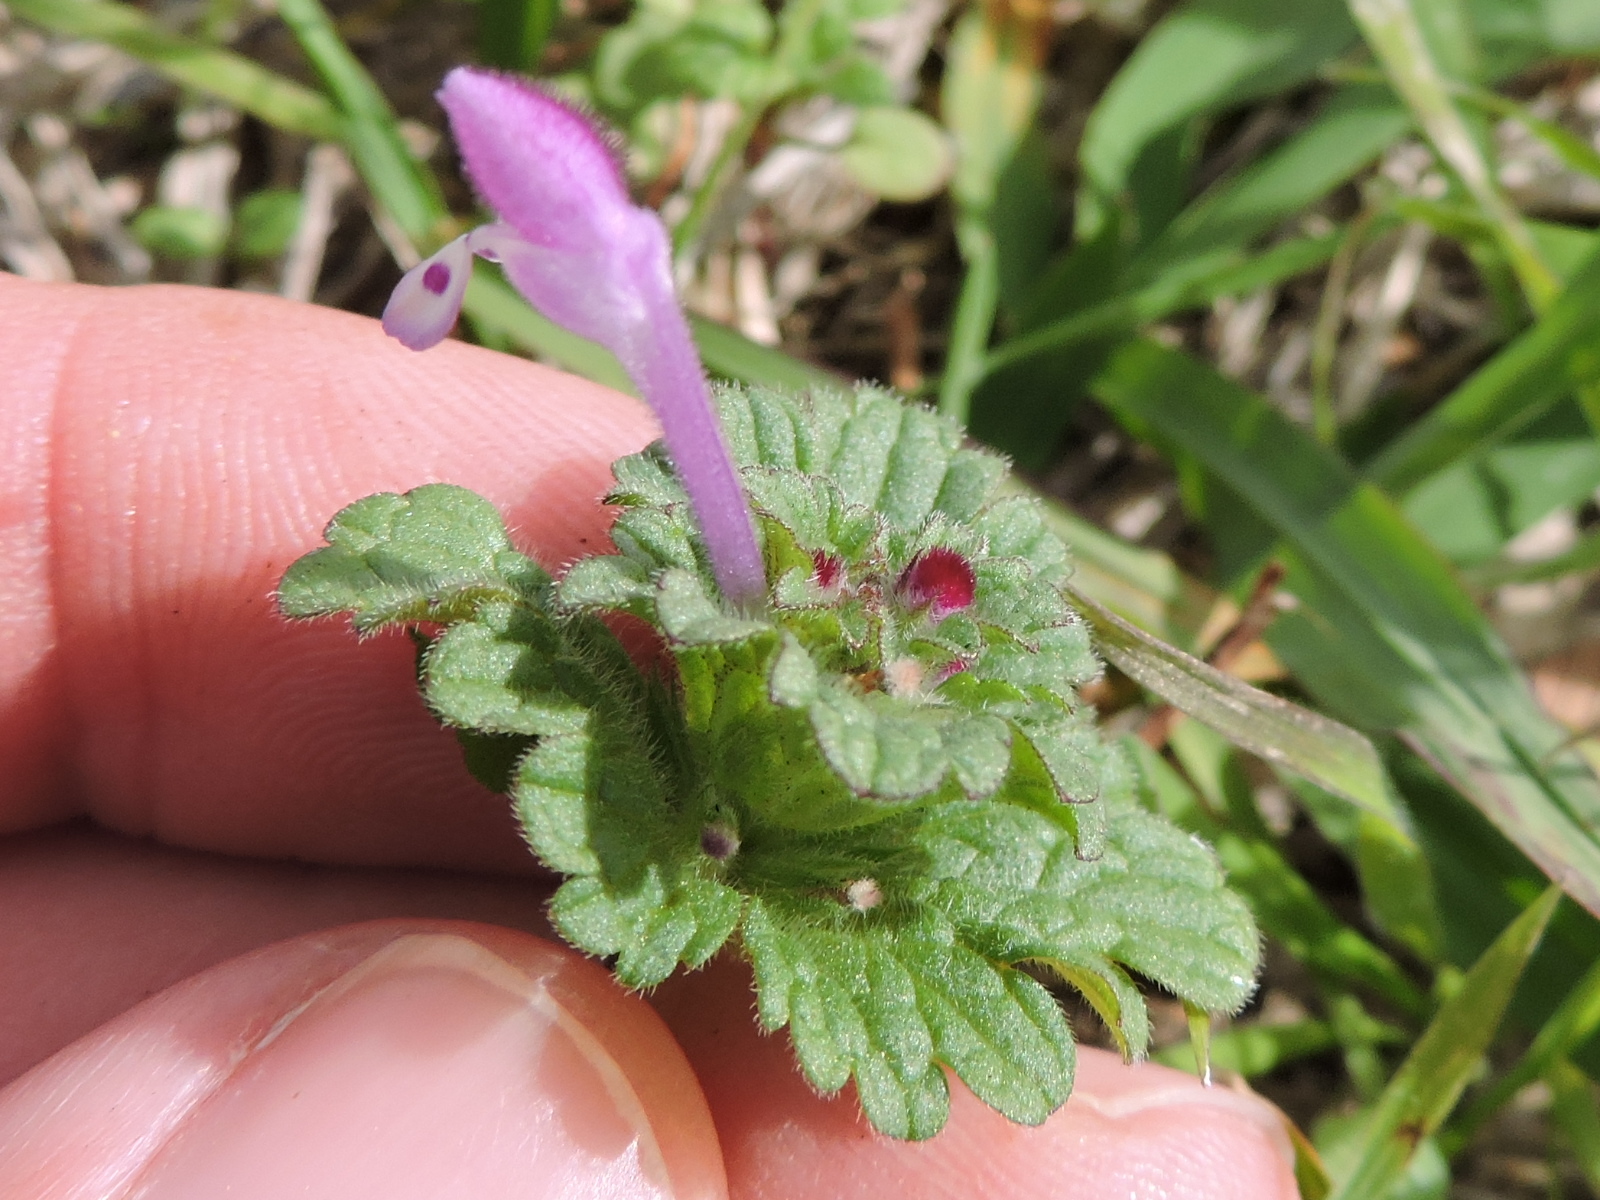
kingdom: Plantae
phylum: Tracheophyta
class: Magnoliopsida
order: Lamiales
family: Lamiaceae
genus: Lamium
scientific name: Lamium amplexicaule
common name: Henbit dead-nettle
